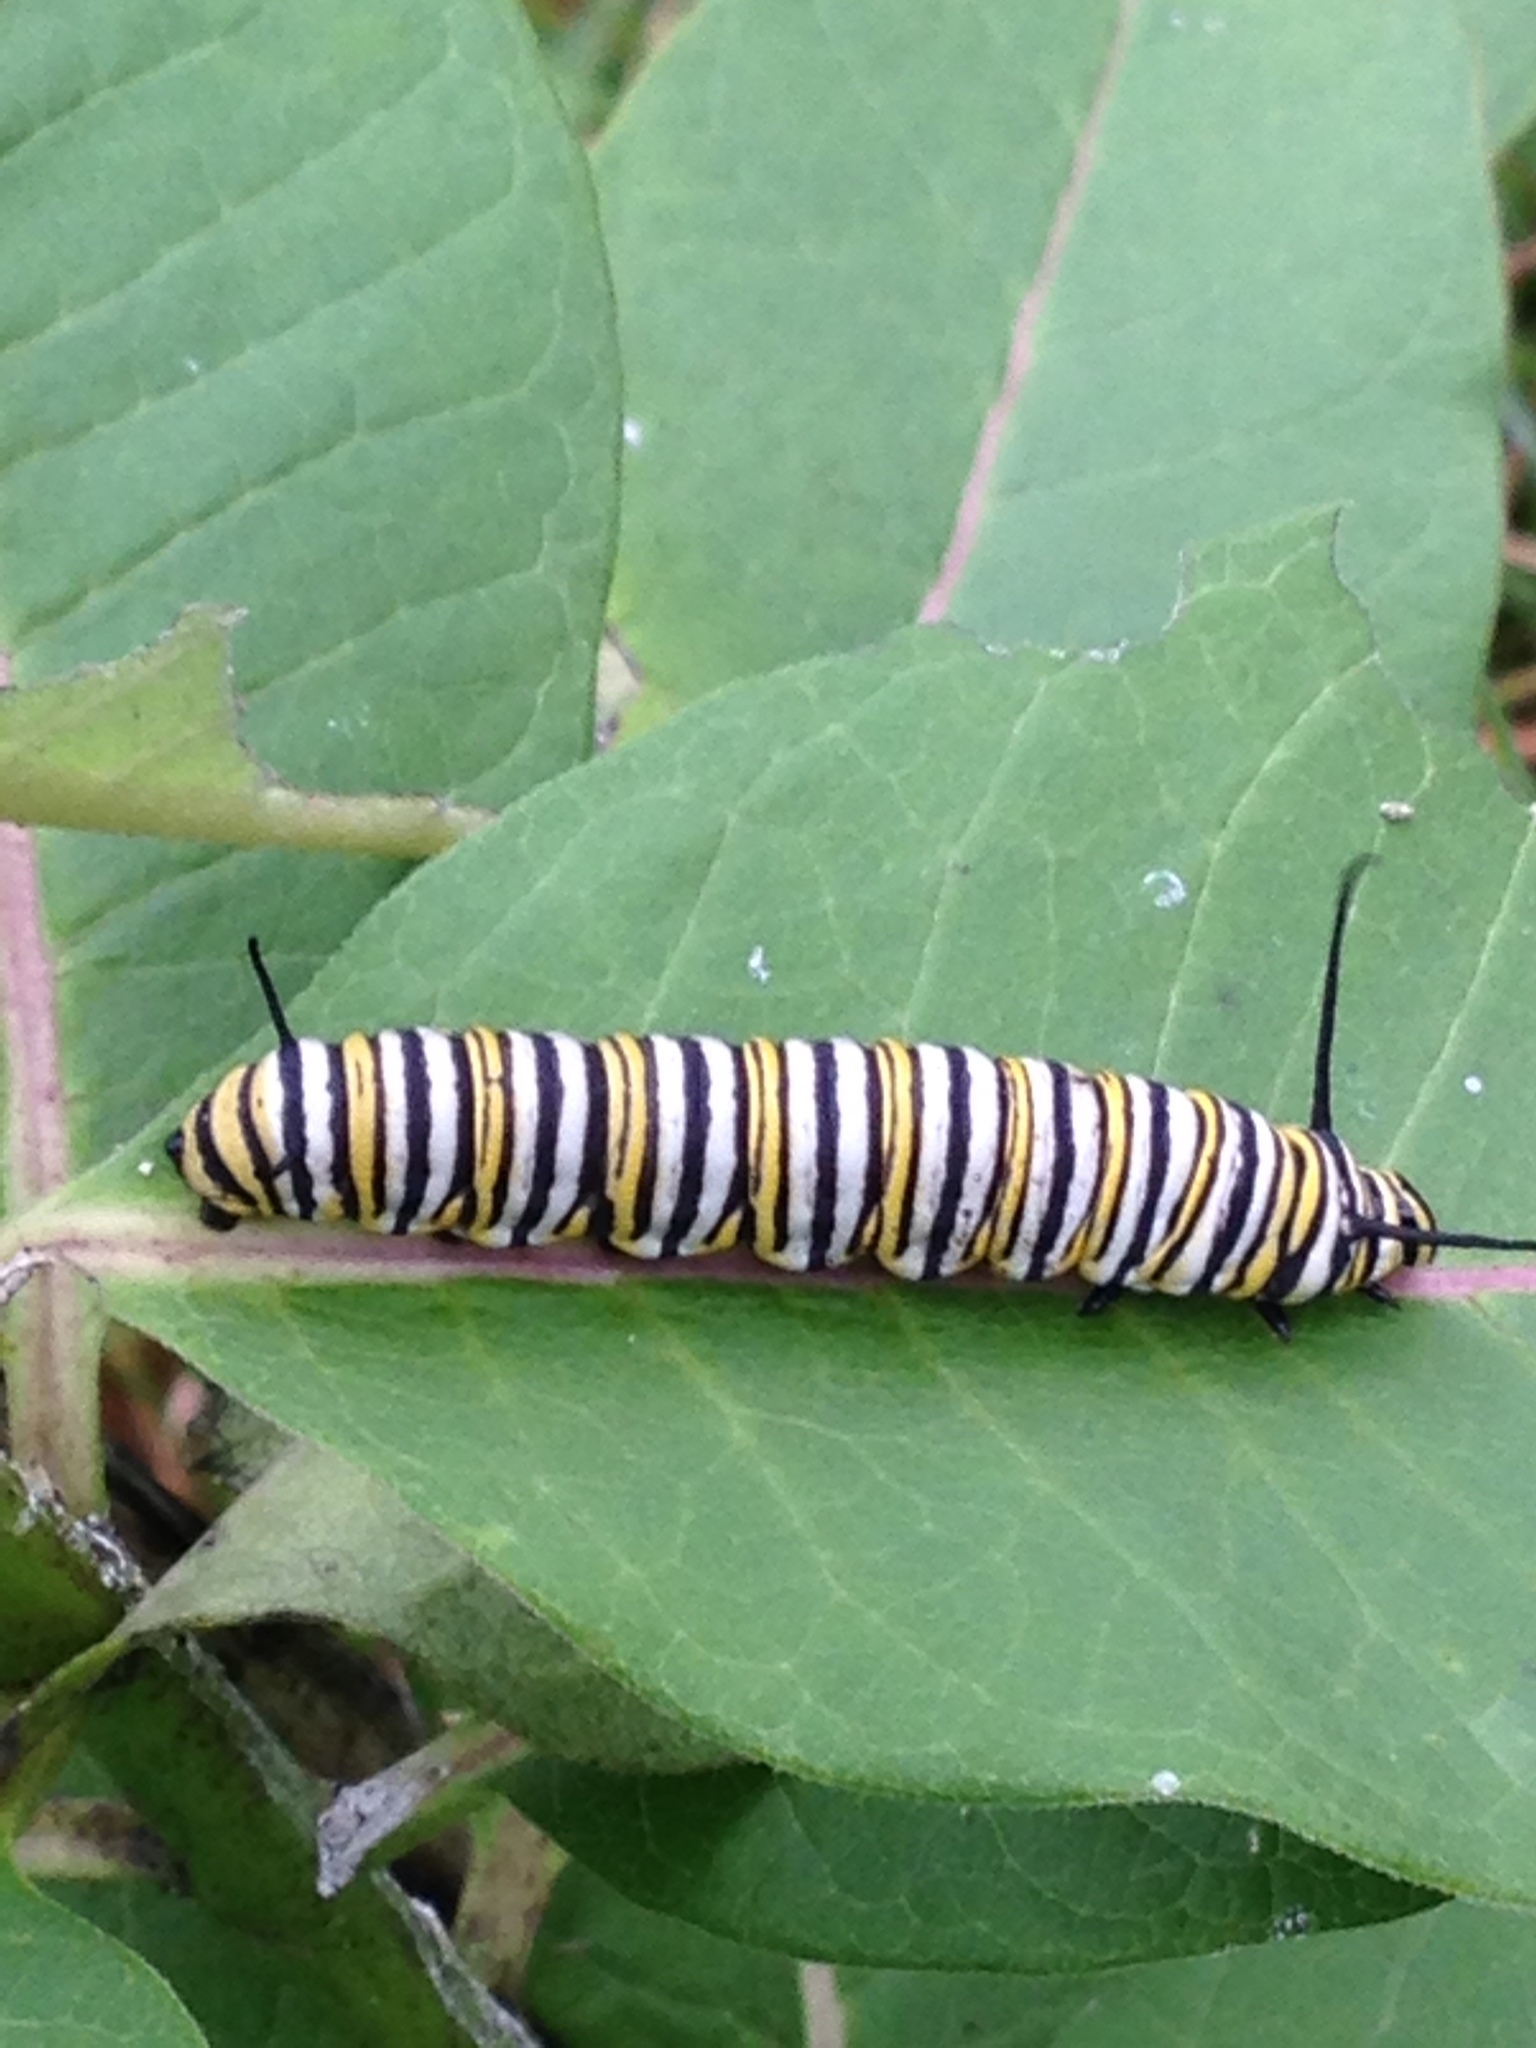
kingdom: Animalia
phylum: Arthropoda
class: Insecta
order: Lepidoptera
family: Nymphalidae
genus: Danaus
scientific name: Danaus plexippus
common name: Monarch
